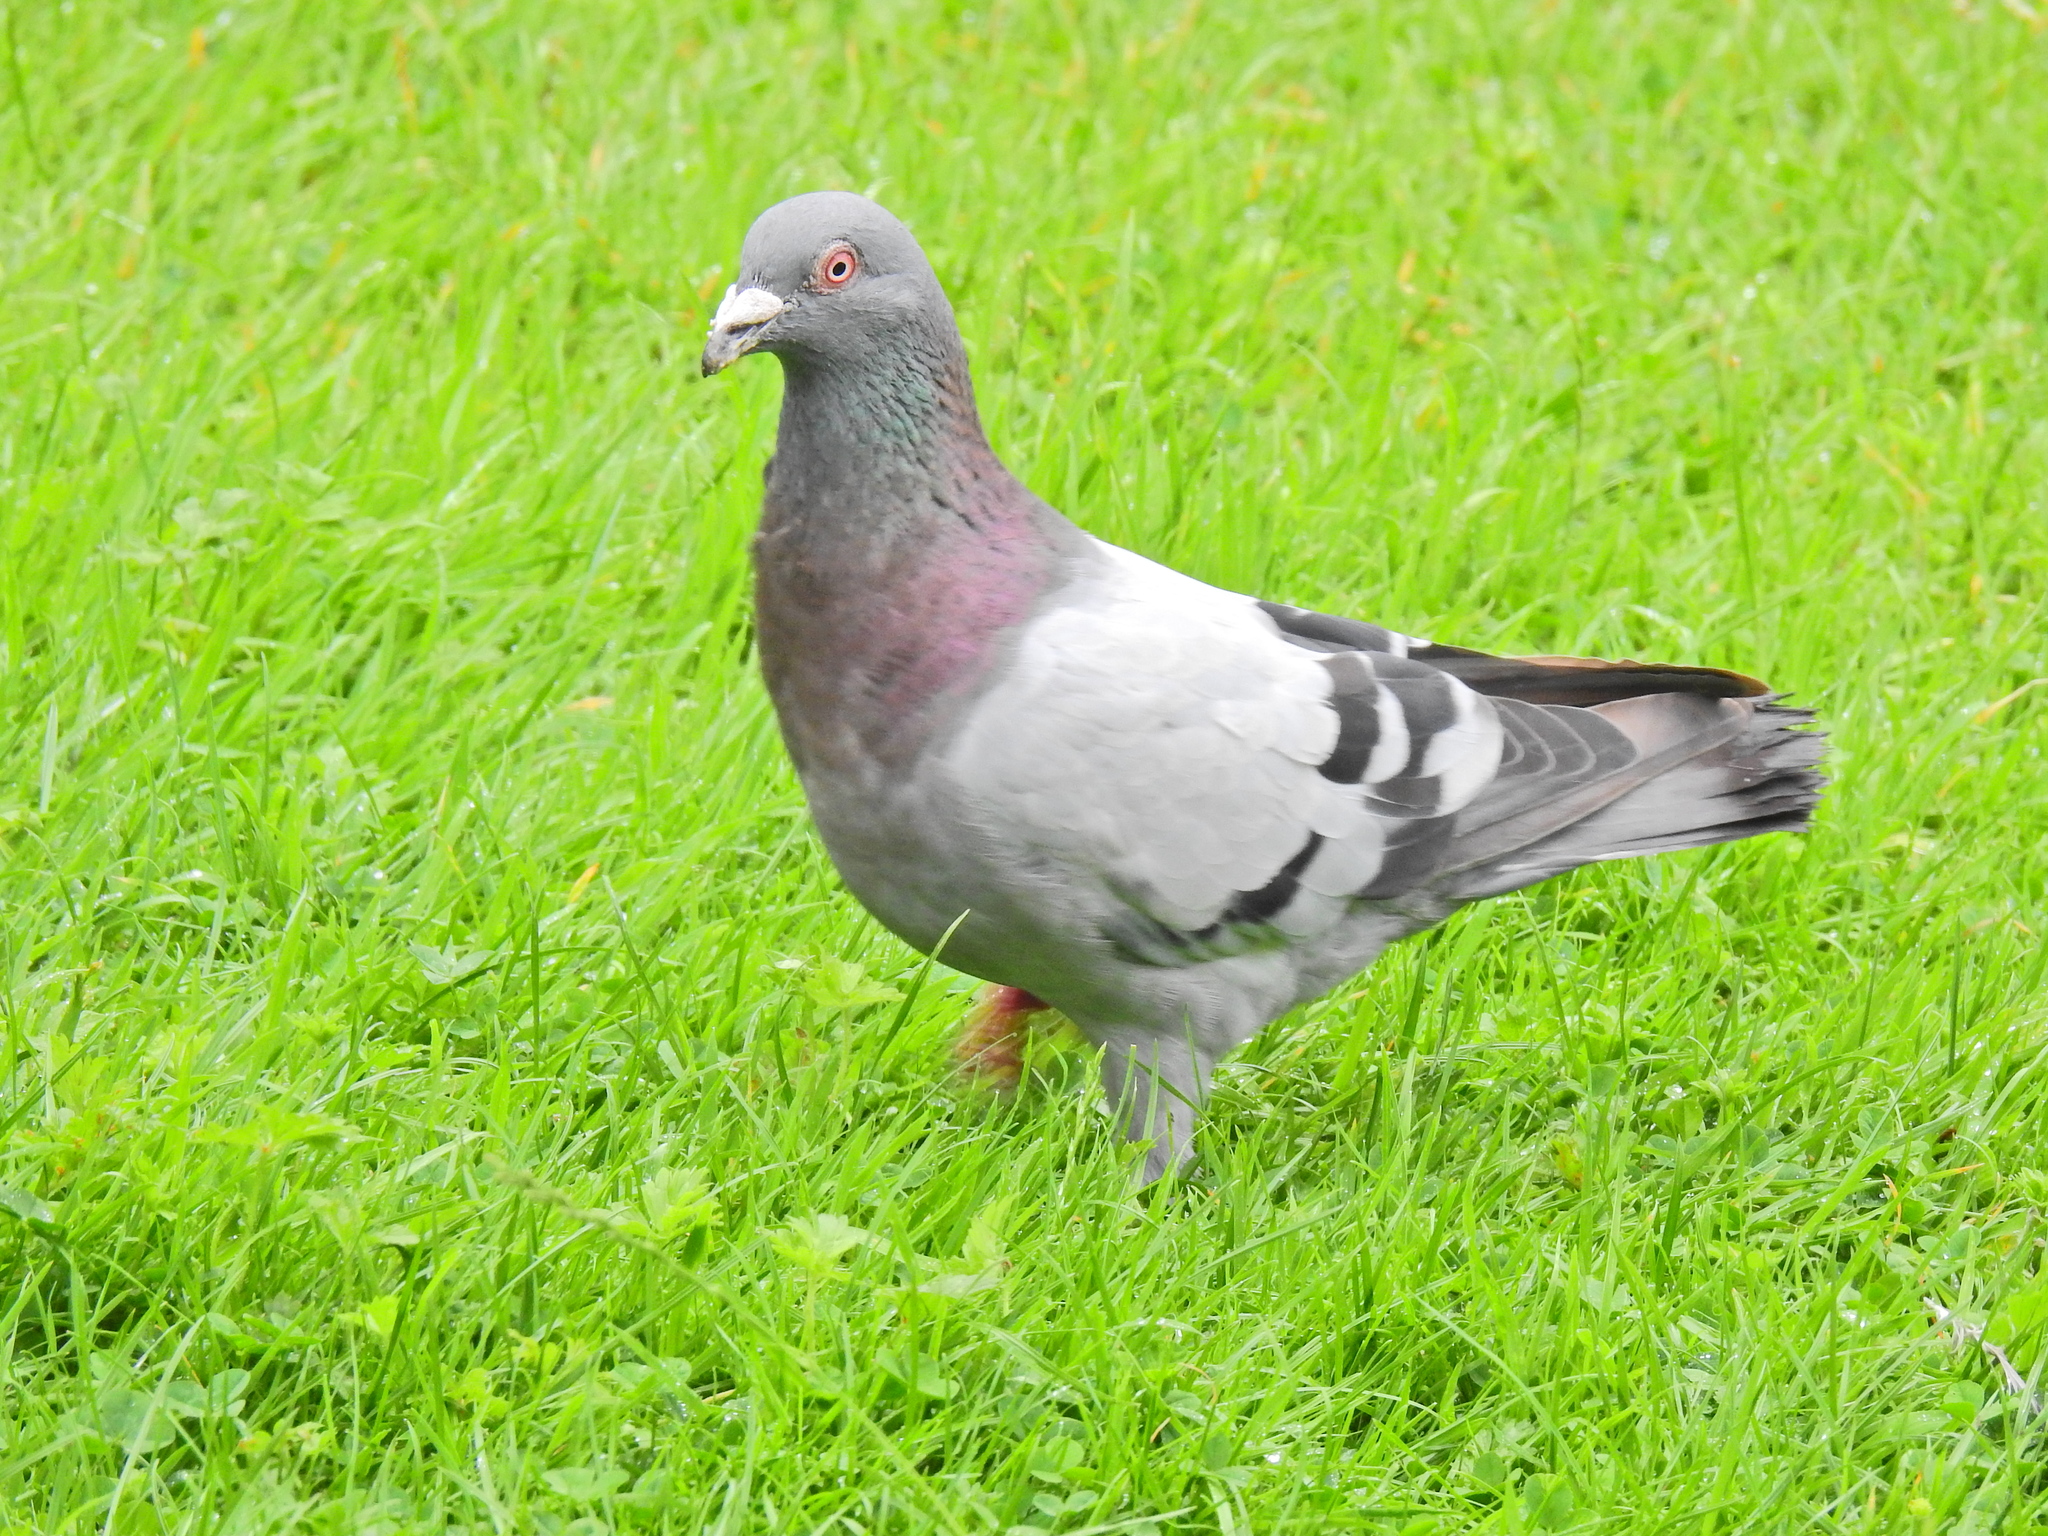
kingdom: Animalia
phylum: Chordata
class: Aves
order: Columbiformes
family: Columbidae
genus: Columba
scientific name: Columba livia
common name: Rock pigeon
